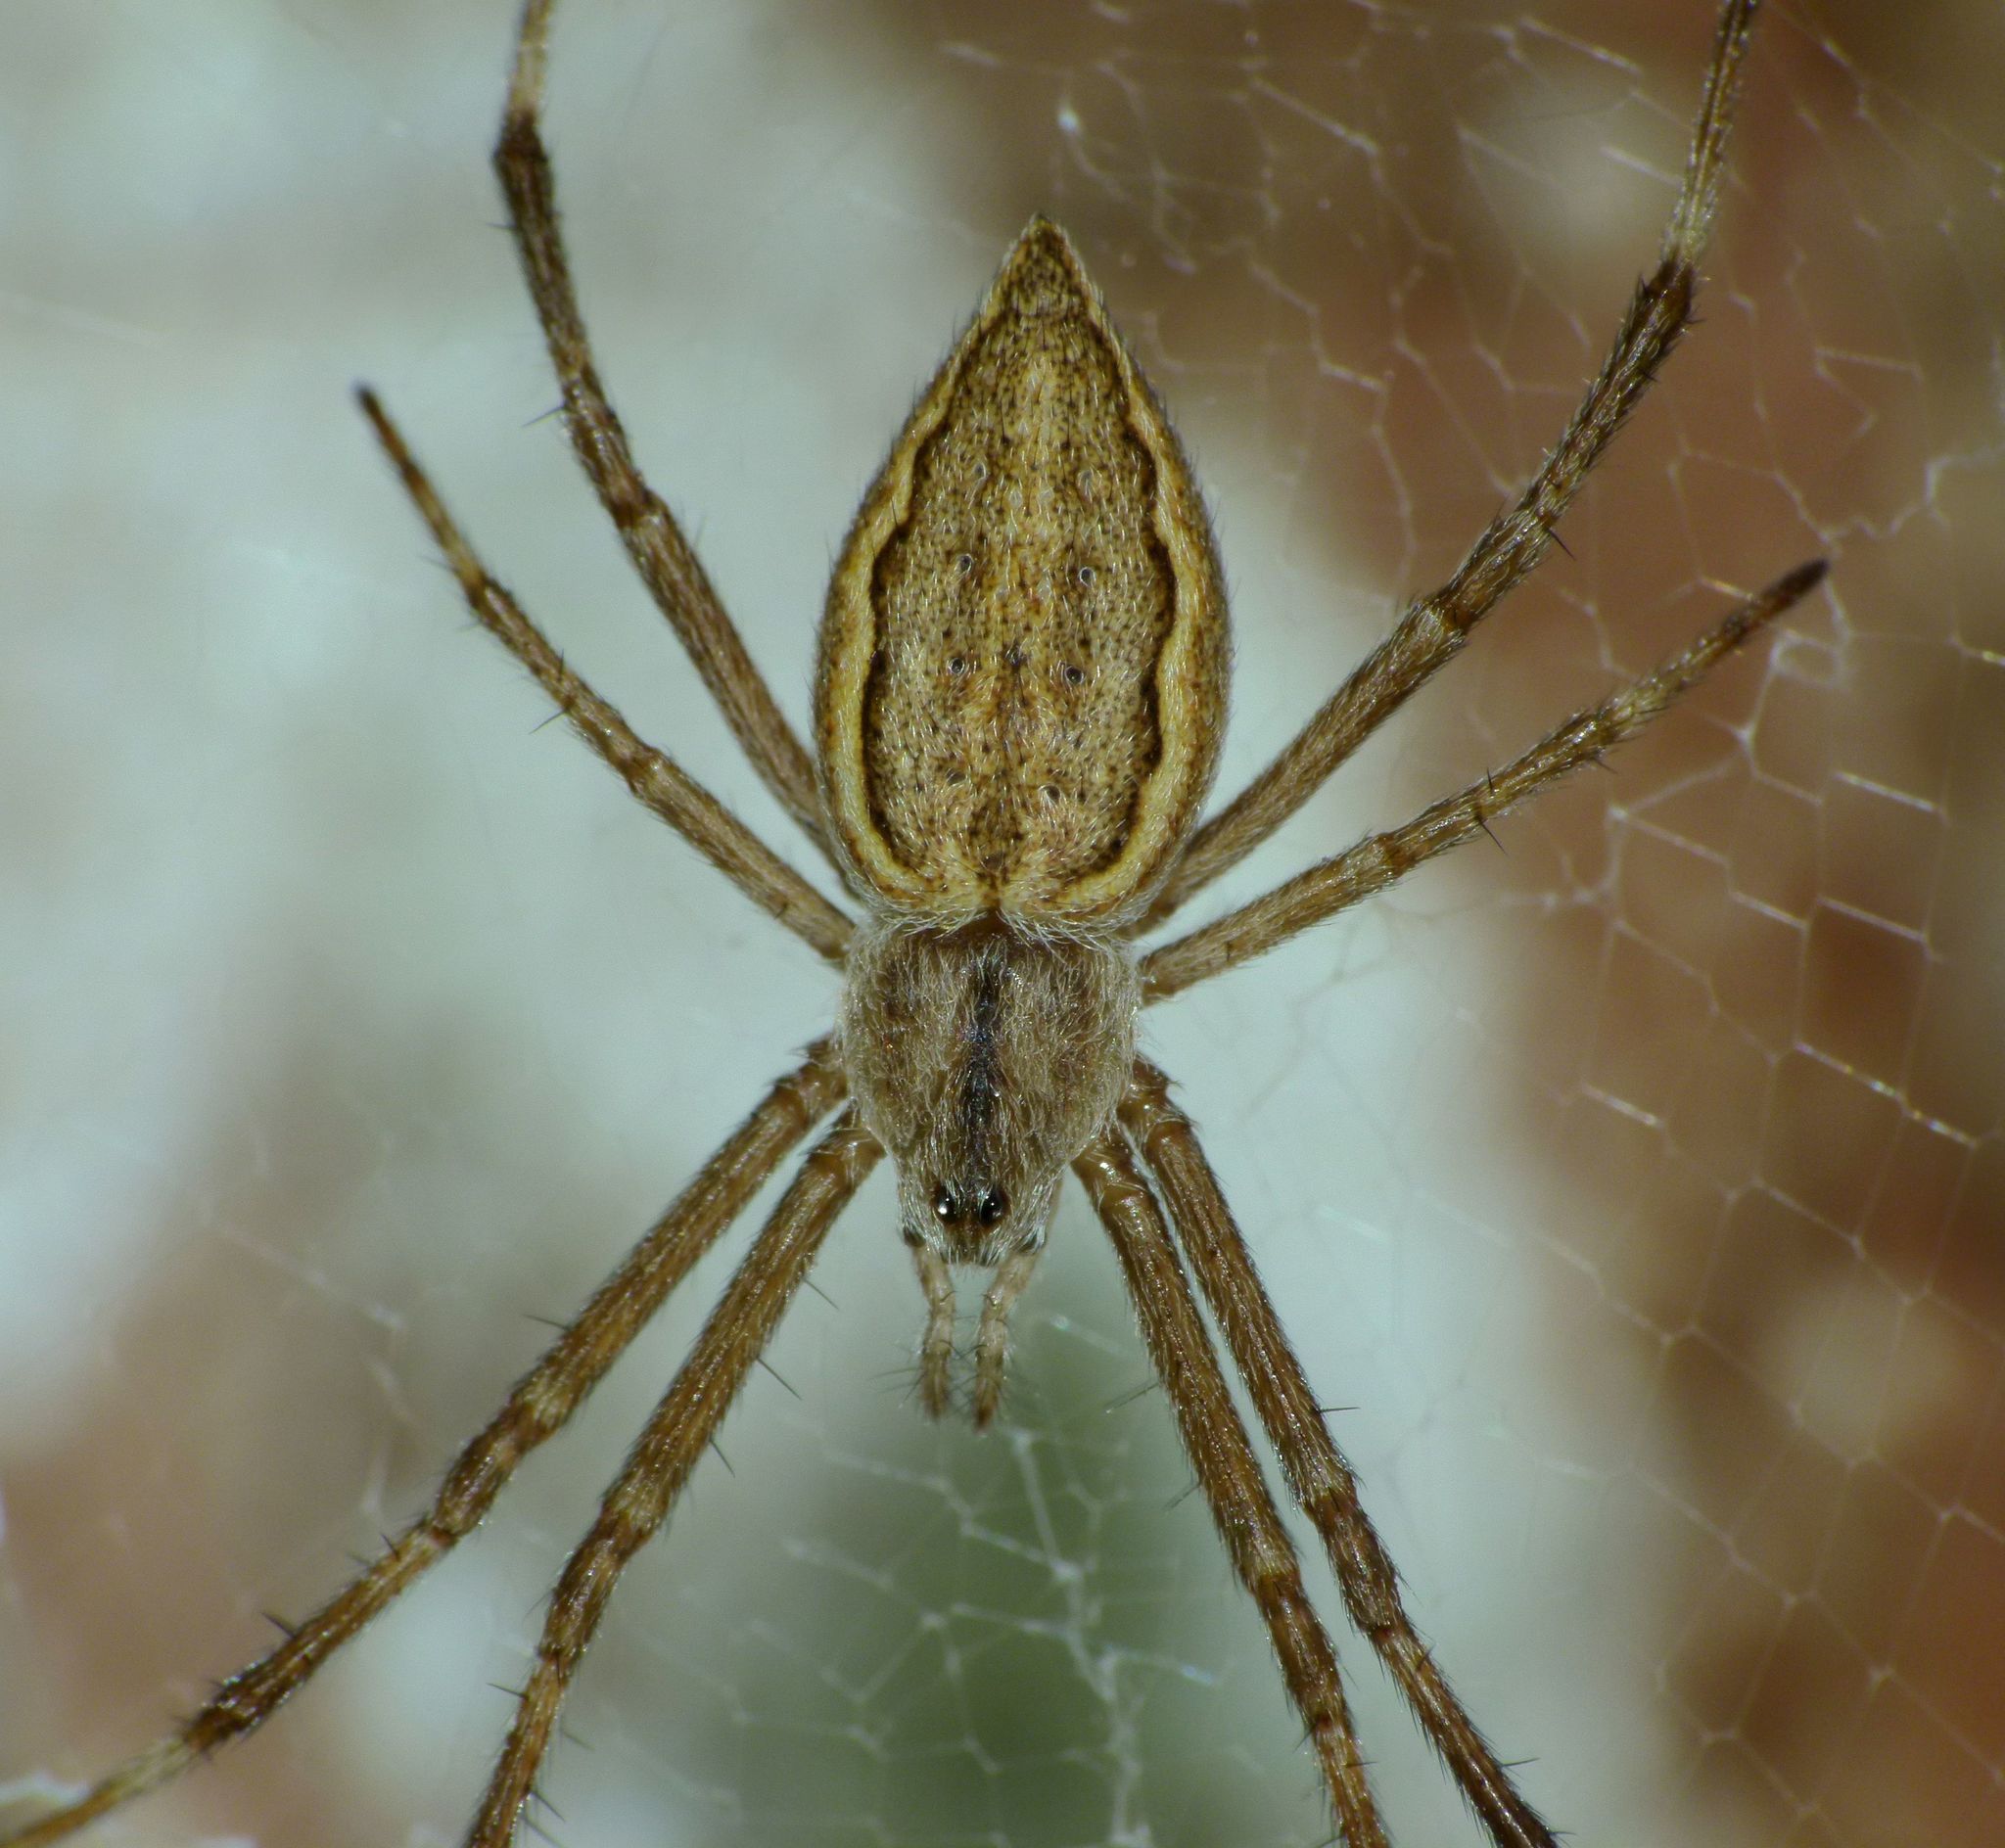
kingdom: Animalia
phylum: Arthropoda
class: Arachnida
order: Araneae
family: Araneidae
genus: Argiope
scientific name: Argiope ocyaloides
